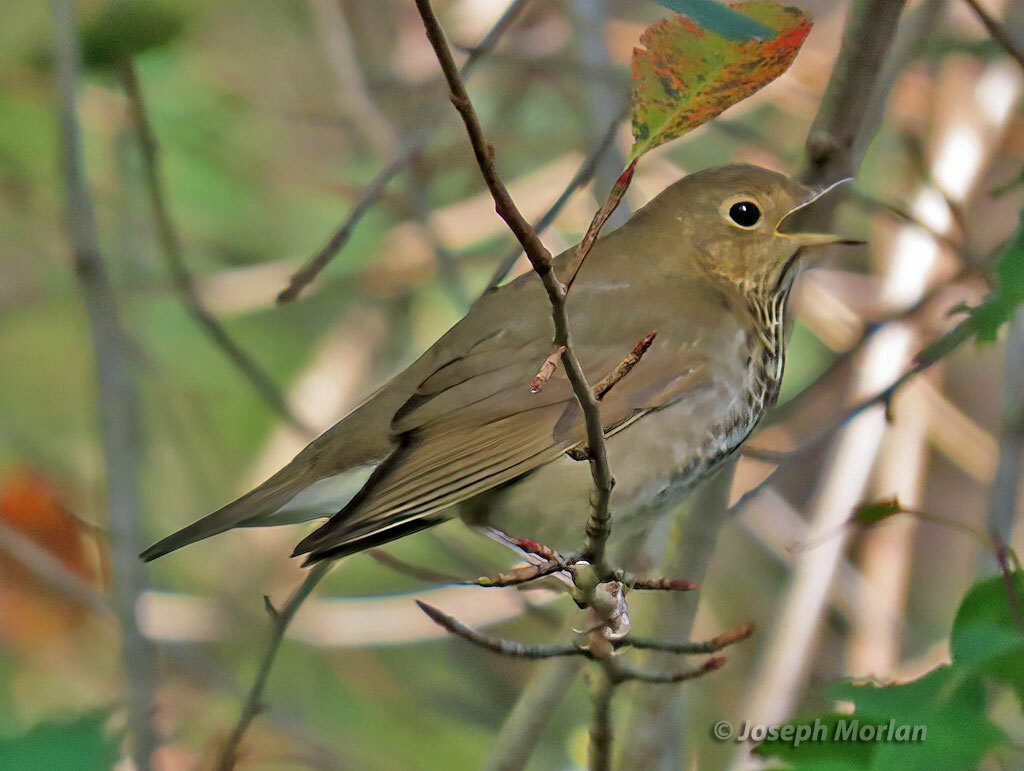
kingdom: Animalia
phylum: Chordata
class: Aves
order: Passeriformes
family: Turdidae
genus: Catharus
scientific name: Catharus ustulatus
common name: Swainson's thrush
